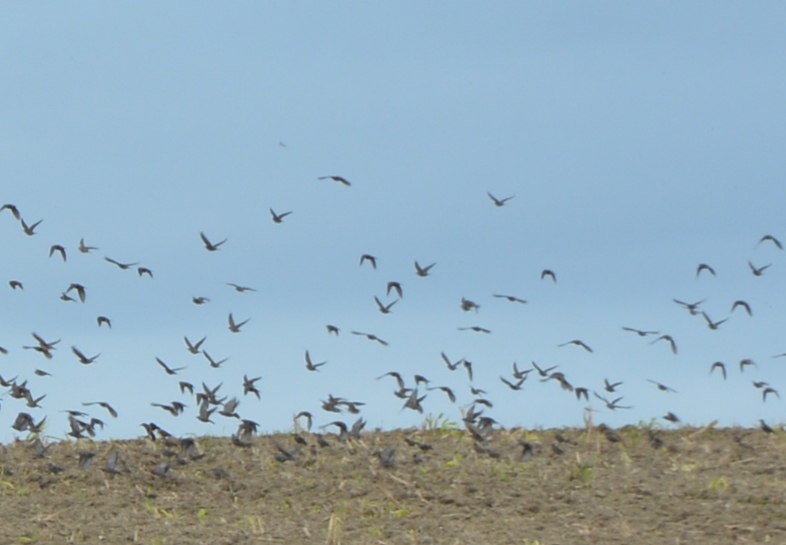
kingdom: Animalia
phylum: Chordata
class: Aves
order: Passeriformes
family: Sturnidae
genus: Sturnus
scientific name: Sturnus vulgaris
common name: Common starling
